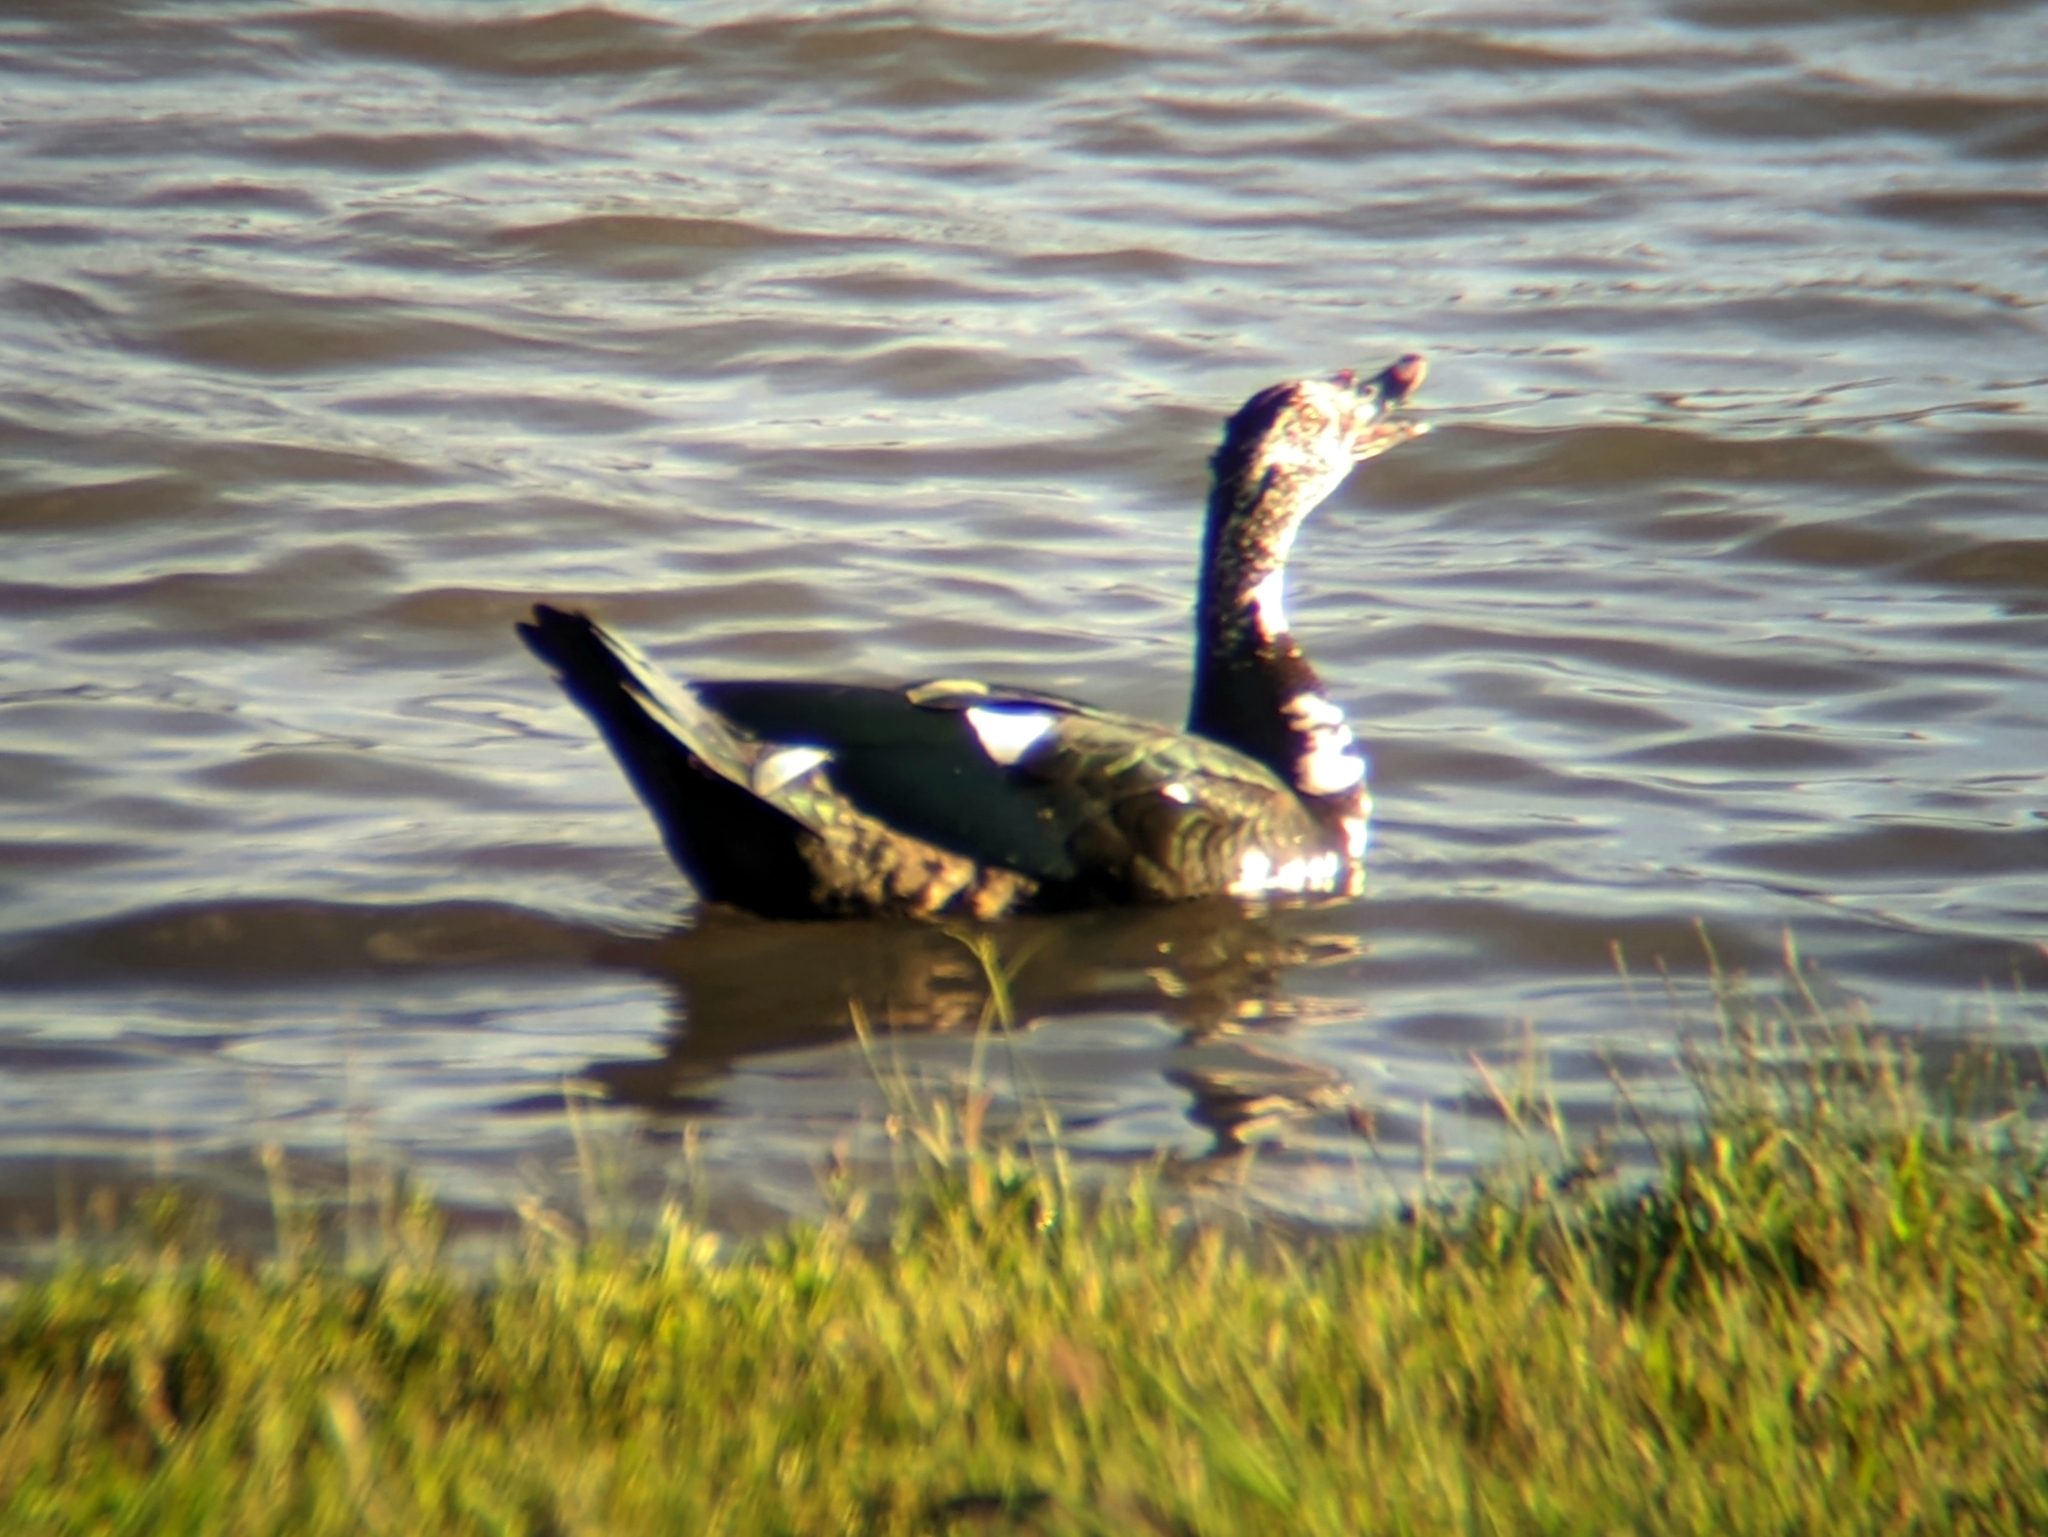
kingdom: Animalia
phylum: Chordata
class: Aves
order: Anseriformes
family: Anatidae
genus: Cairina
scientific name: Cairina moschata
